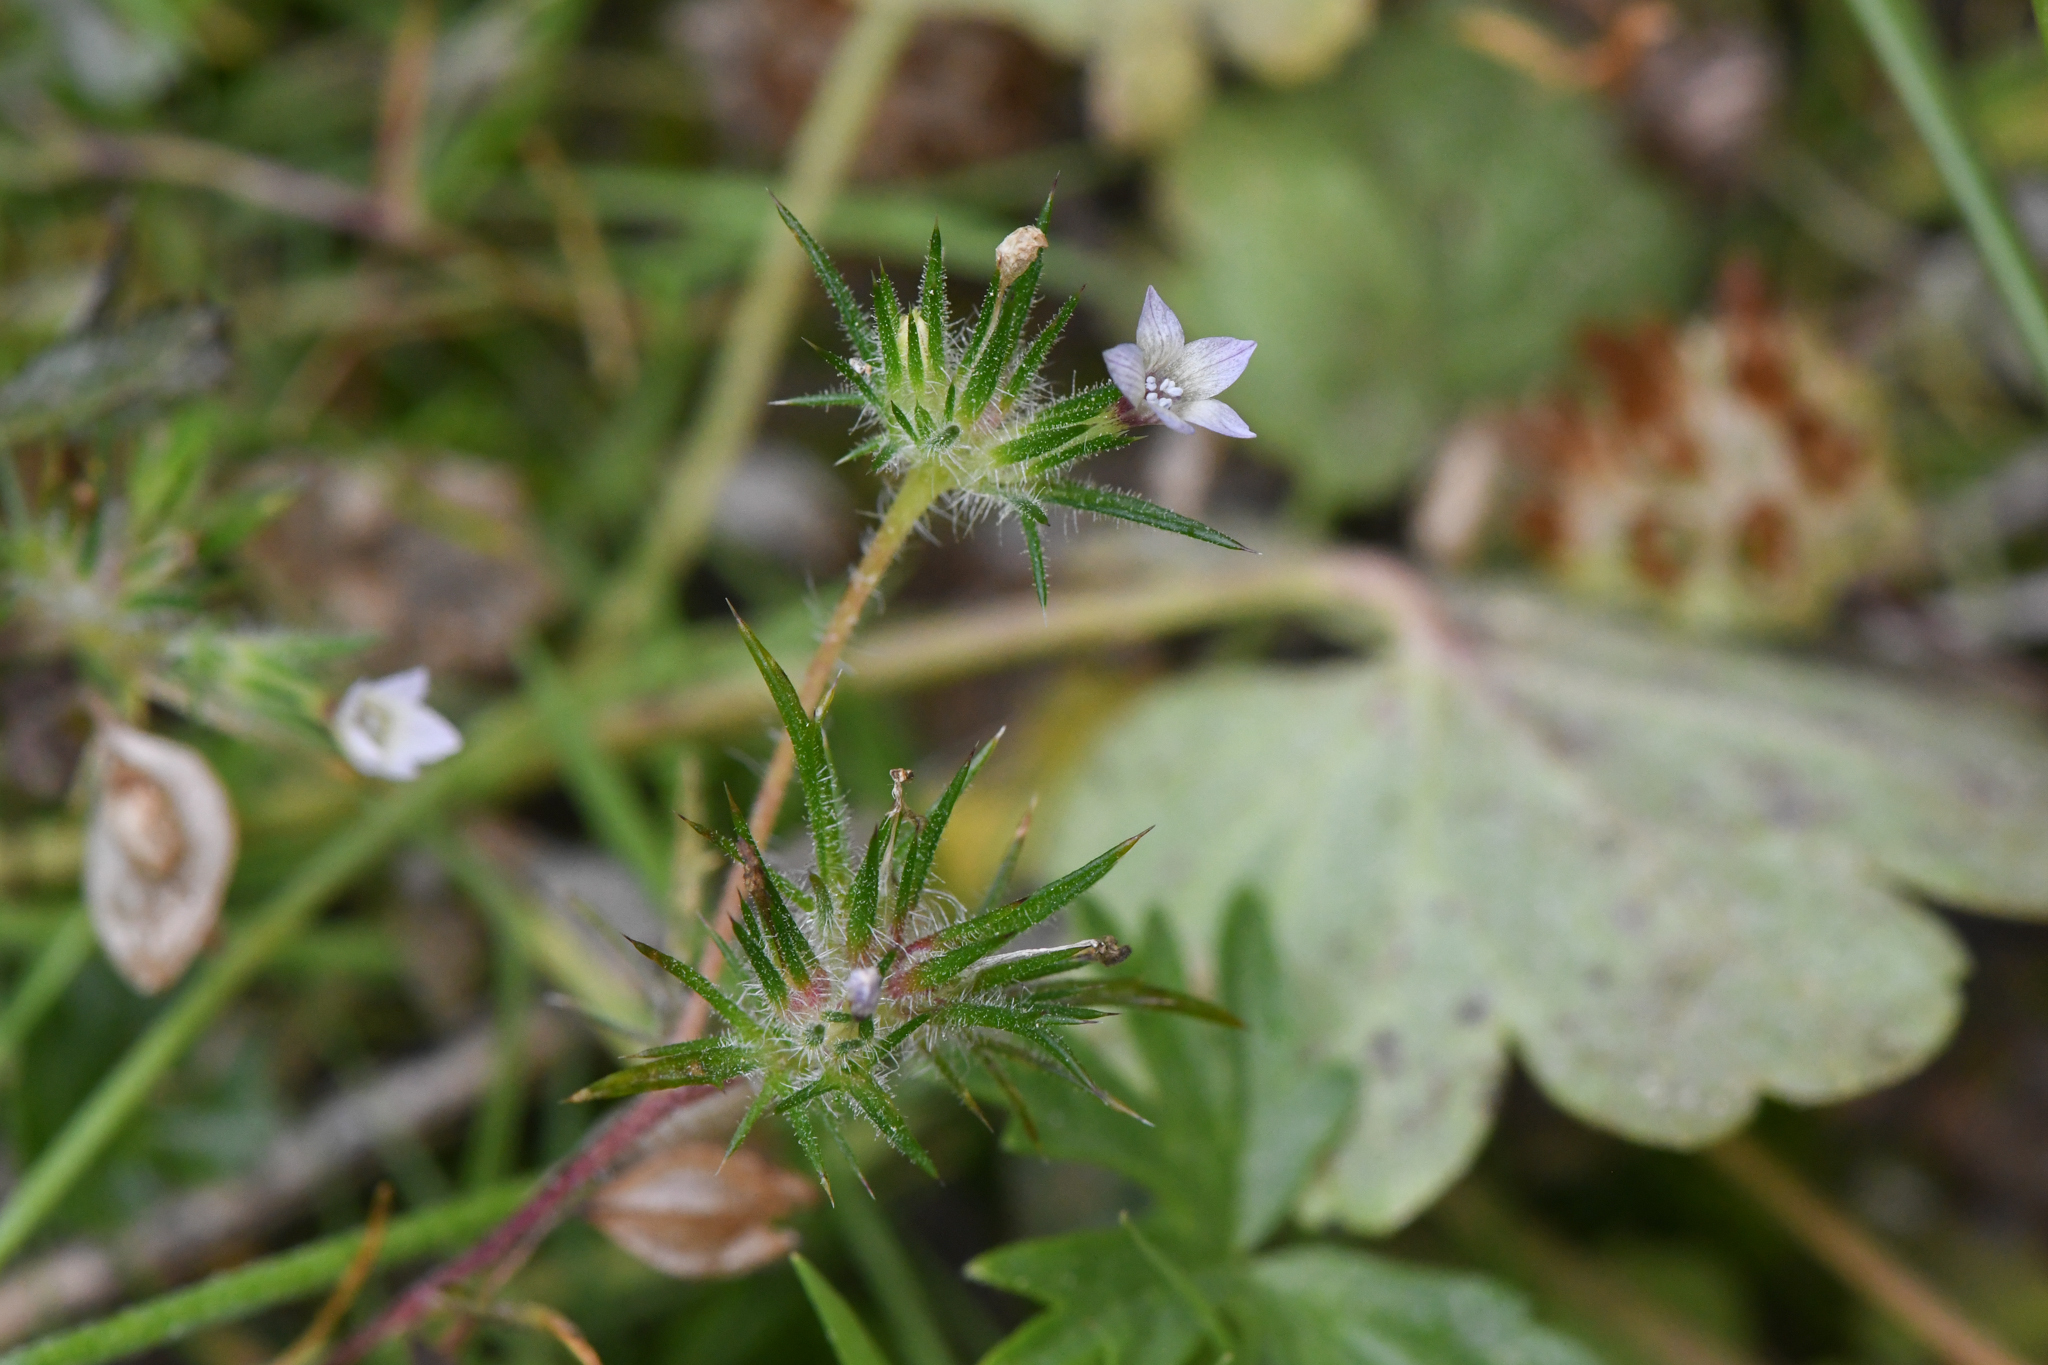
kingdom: Plantae
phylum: Tracheophyta
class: Magnoliopsida
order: Ericales
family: Polemoniaceae
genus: Navarretia
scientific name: Navarretia peninsularis
